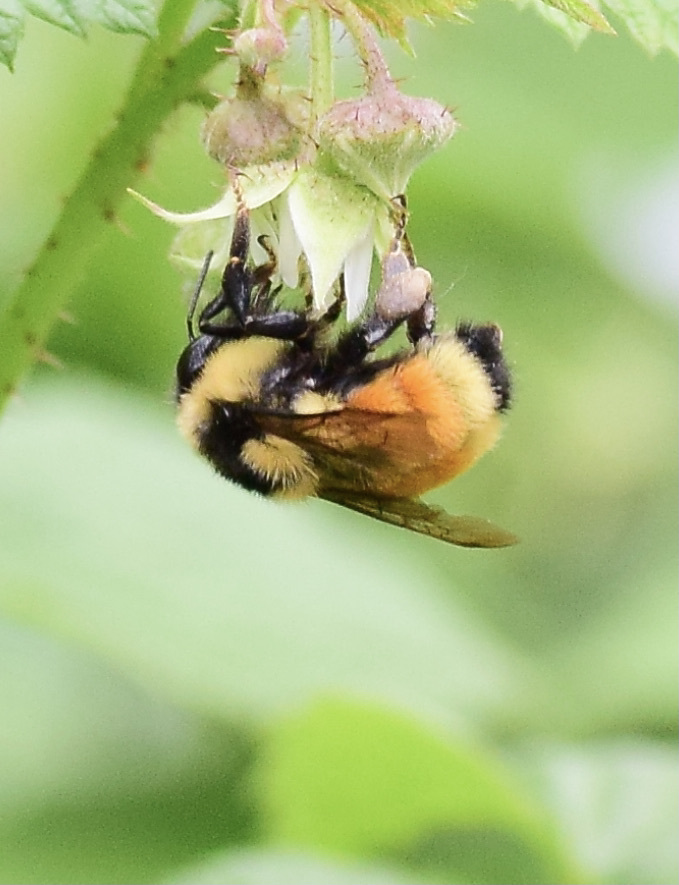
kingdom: Animalia
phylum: Arthropoda
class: Insecta
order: Hymenoptera
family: Apidae
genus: Bombus
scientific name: Bombus ternarius
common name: Tri-colored bumble bee
